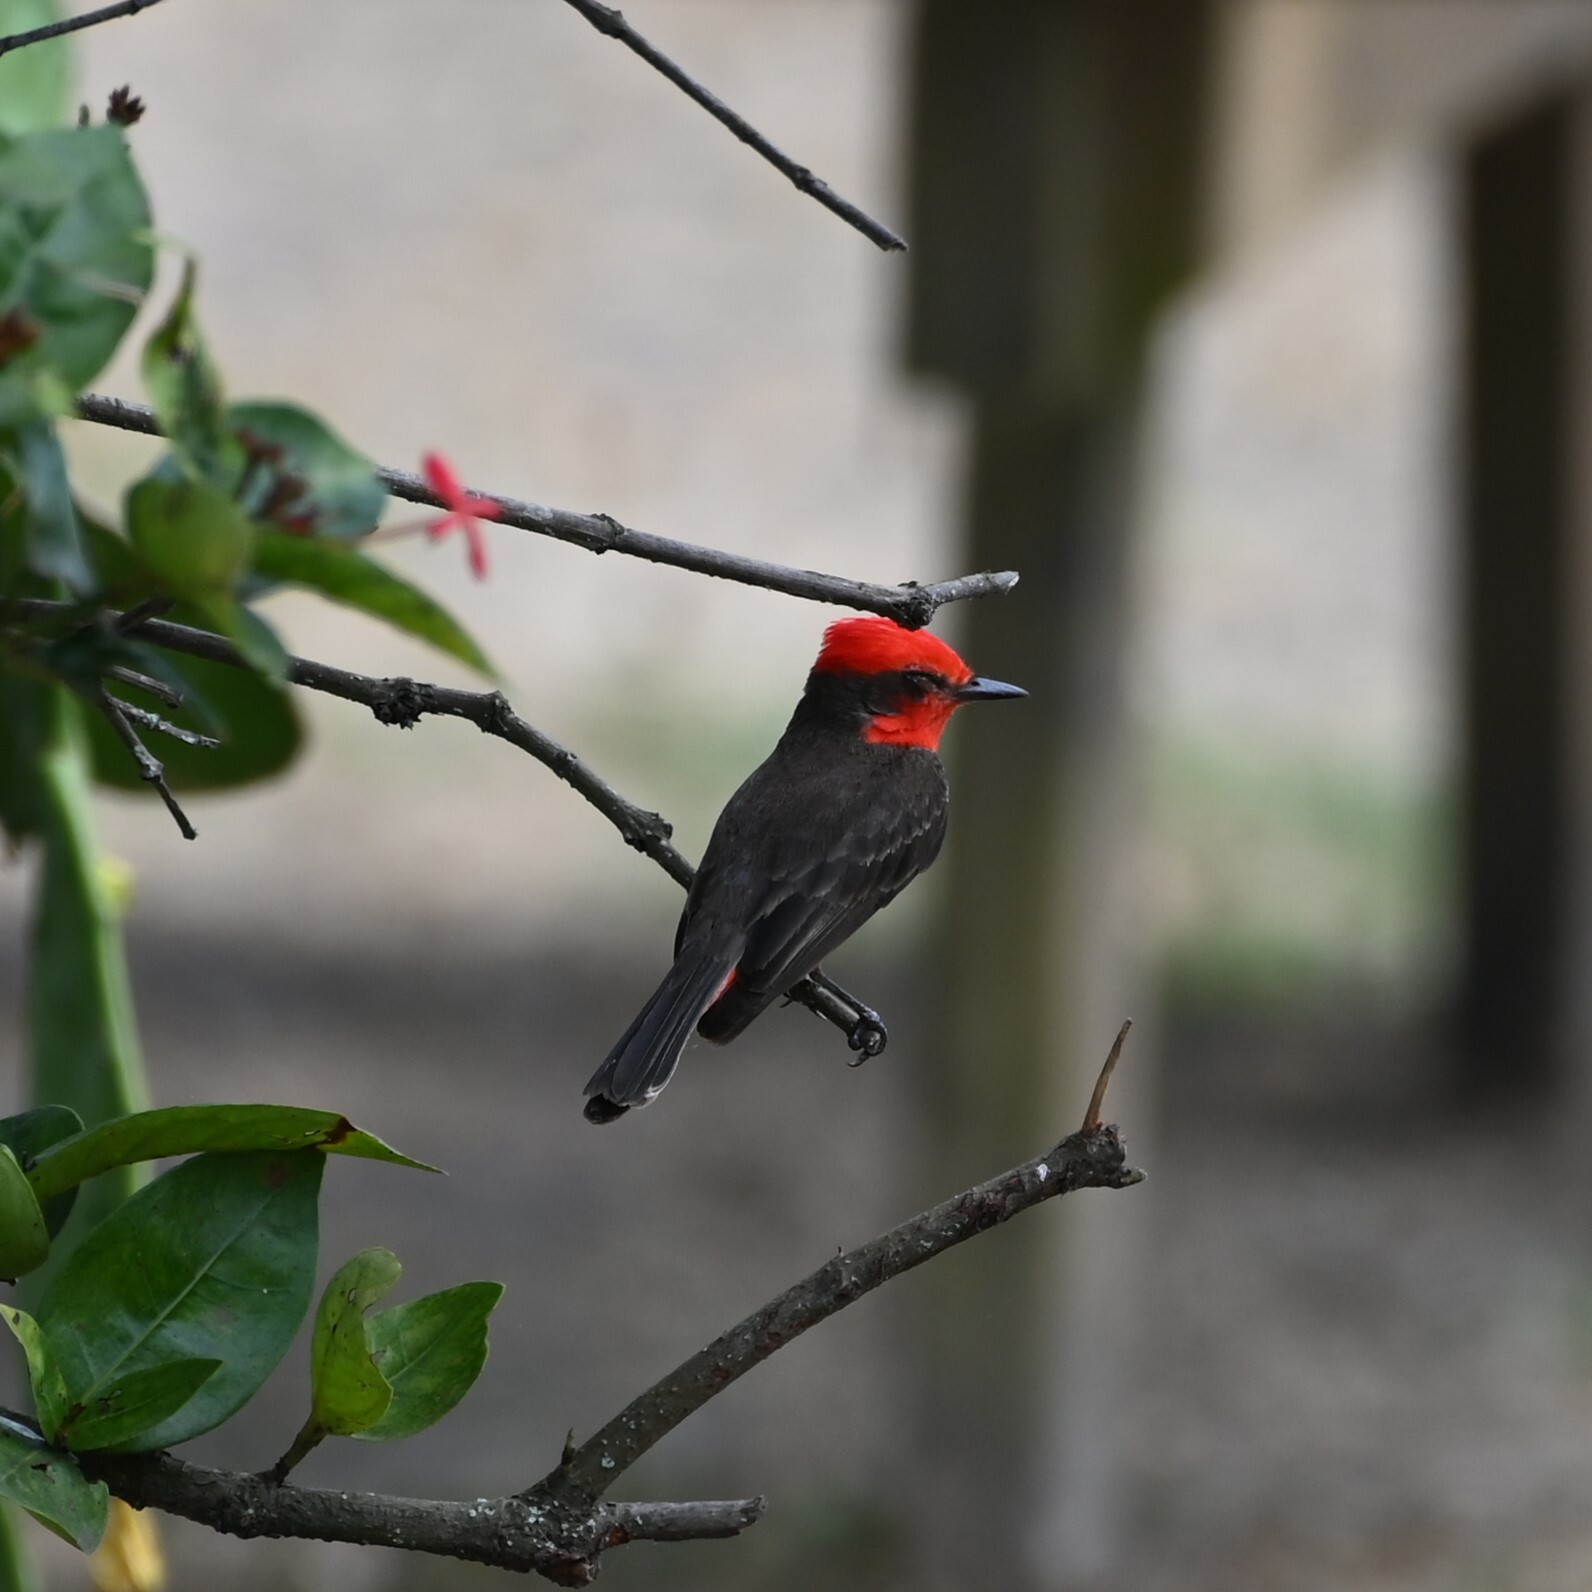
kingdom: Animalia
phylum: Chordata
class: Aves
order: Passeriformes
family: Tyrannidae
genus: Pyrocephalus
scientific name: Pyrocephalus rubinus
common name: Vermilion flycatcher
